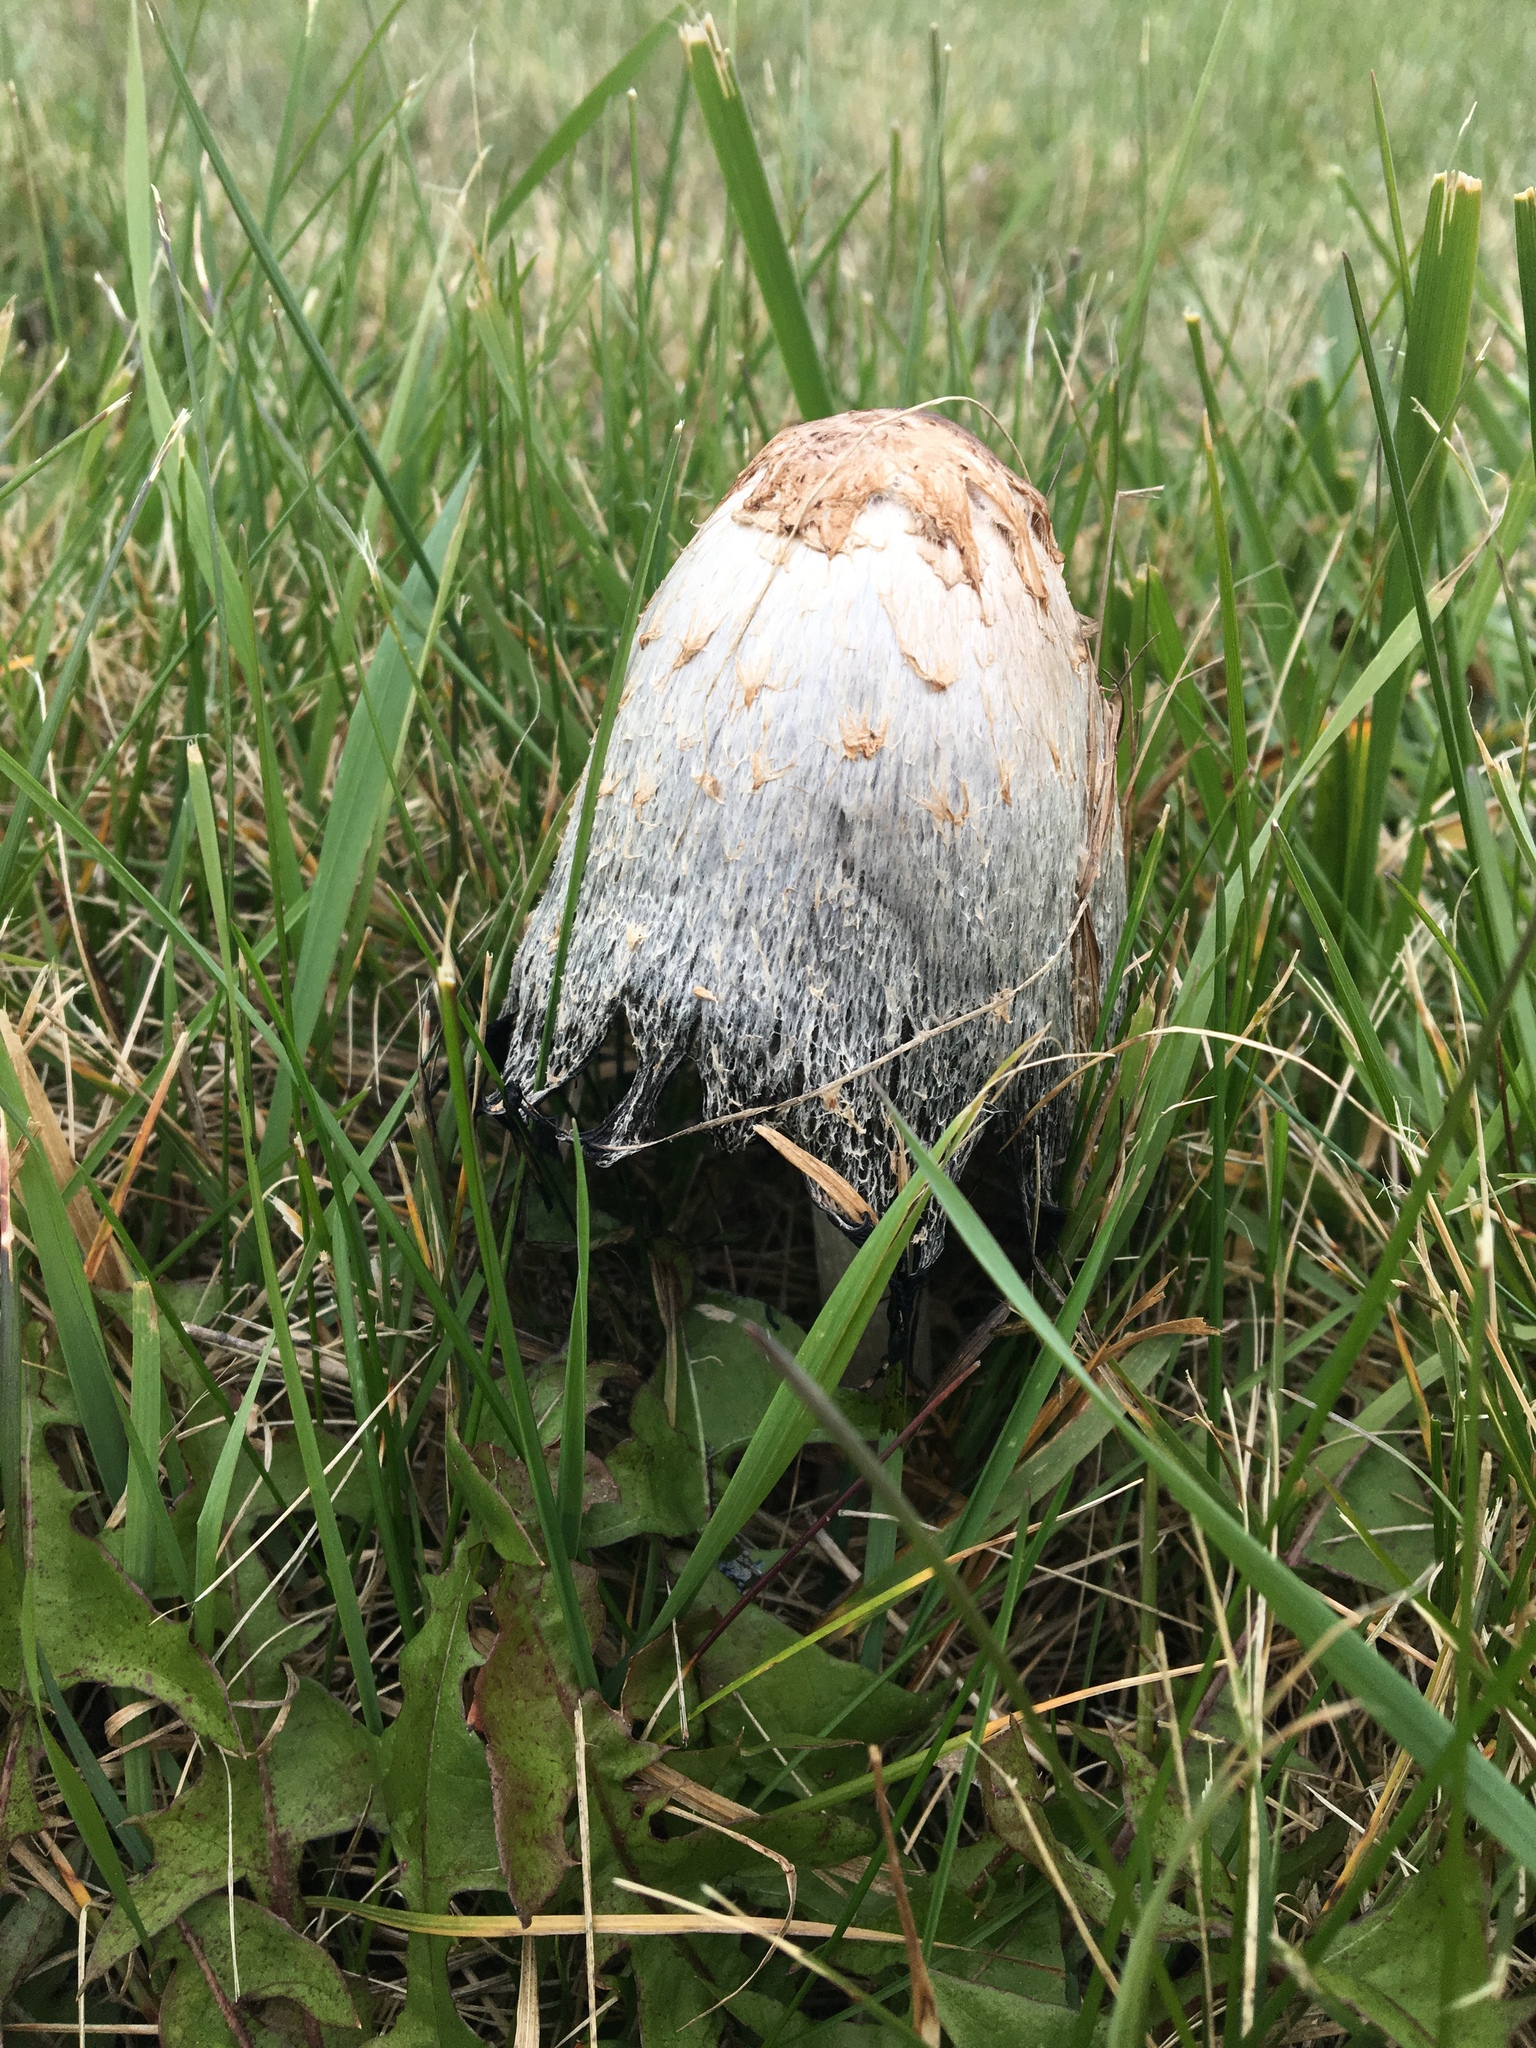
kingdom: Fungi
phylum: Basidiomycota
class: Agaricomycetes
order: Agaricales
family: Agaricaceae
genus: Coprinus
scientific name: Coprinus comatus
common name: Lawyer's wig
